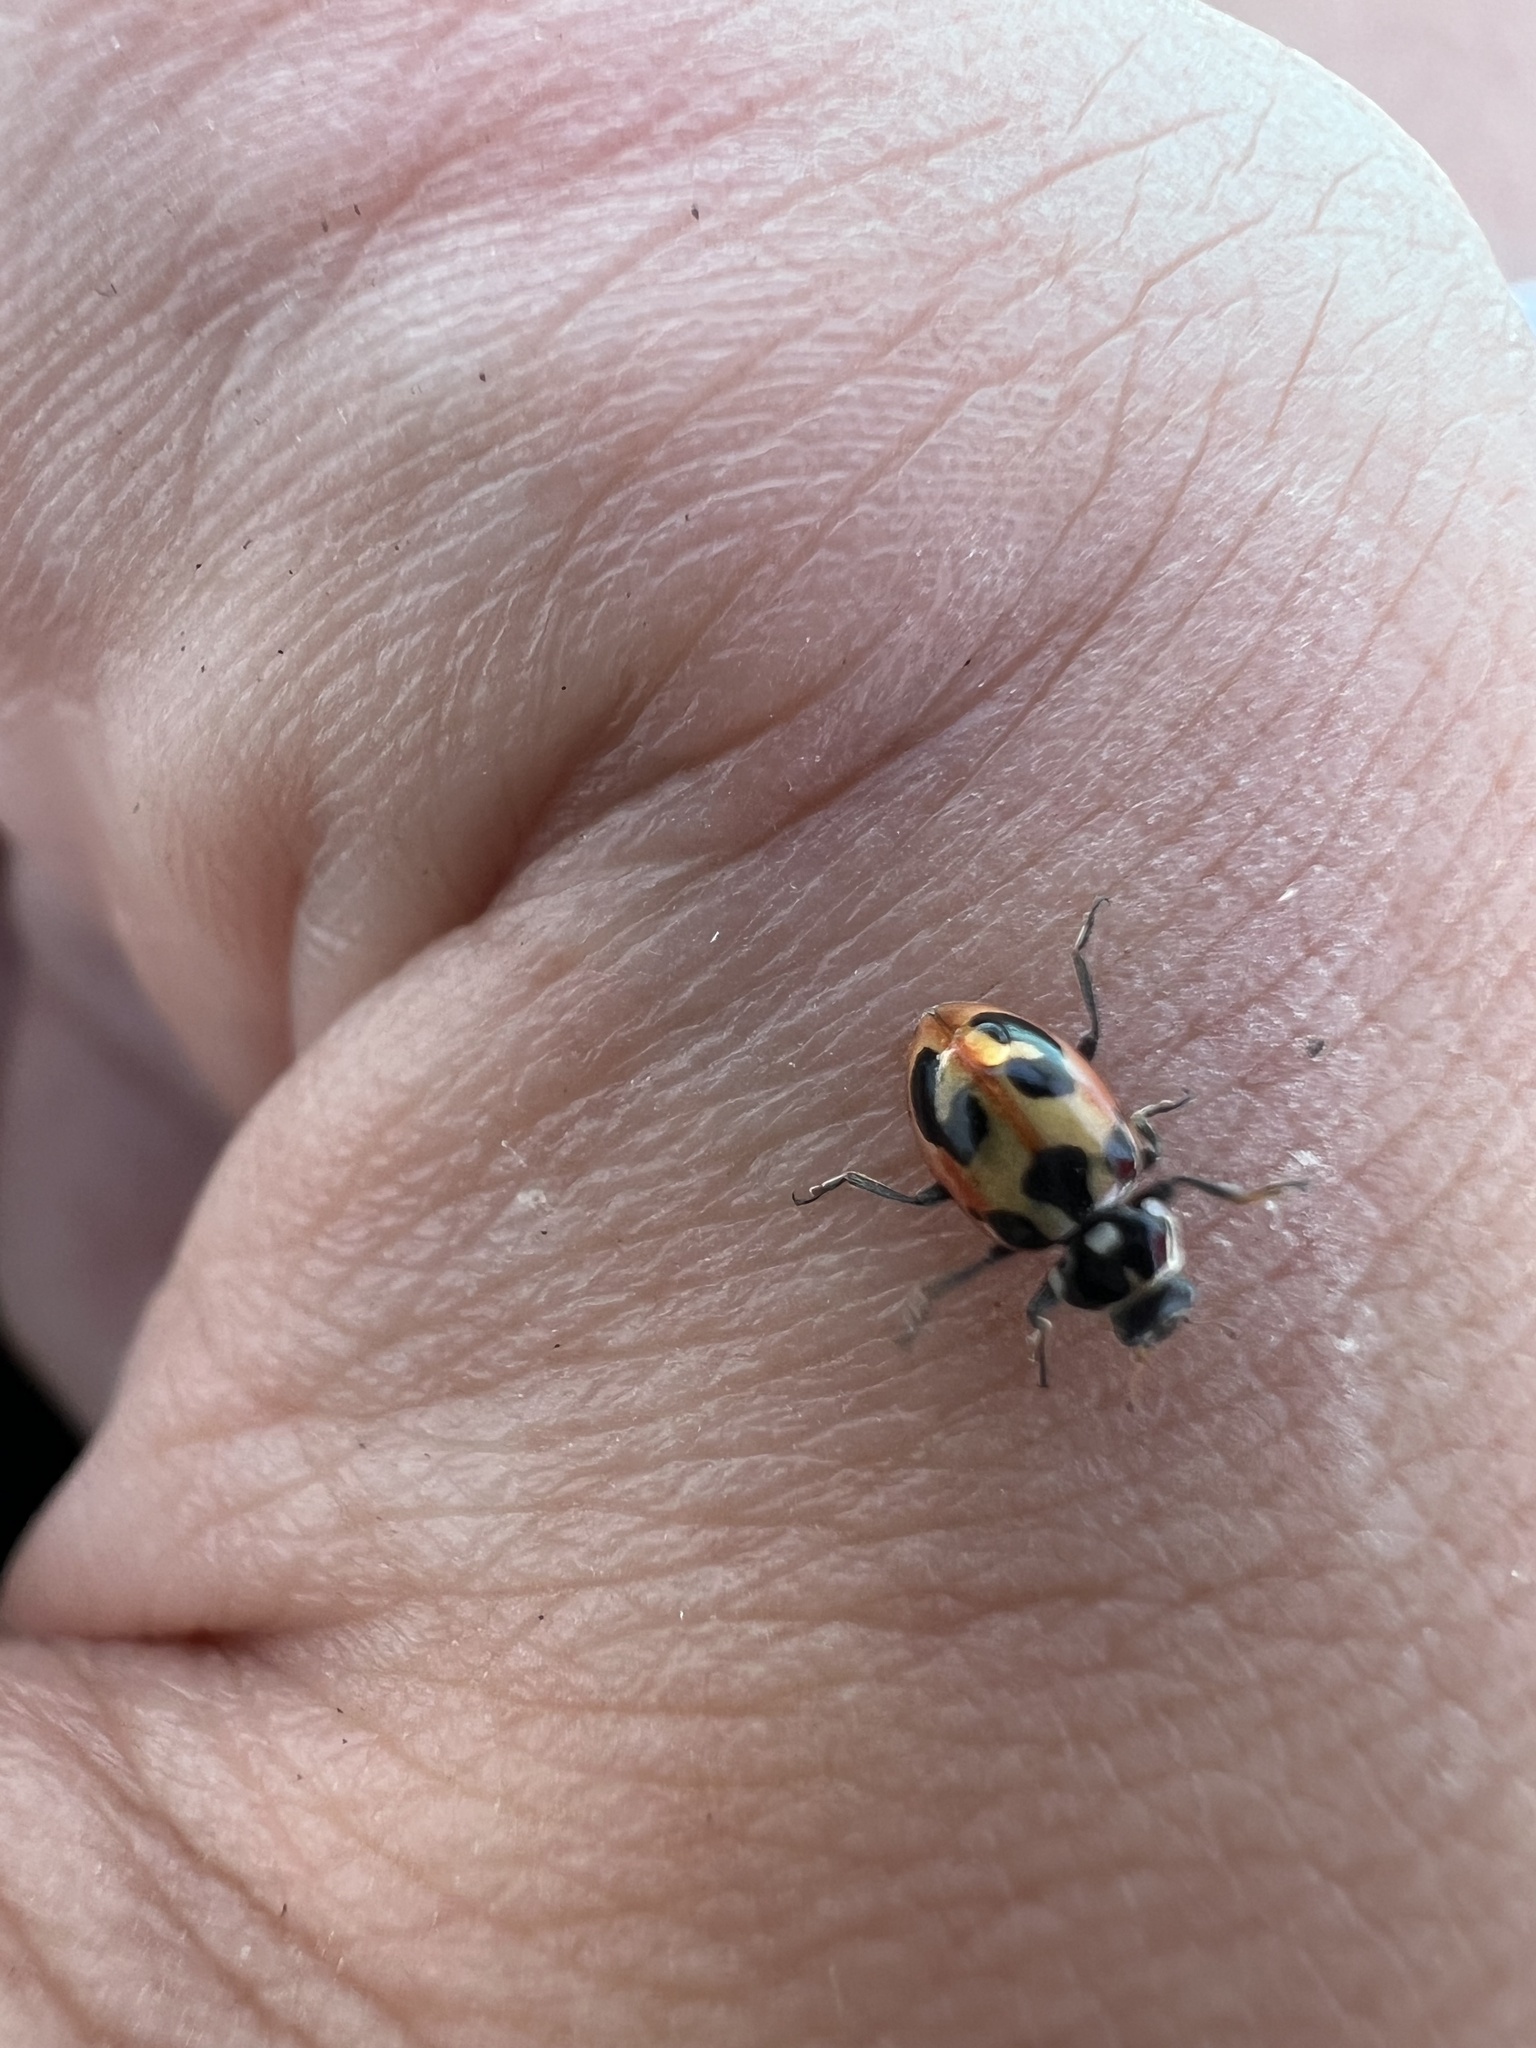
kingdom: Animalia
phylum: Arthropoda
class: Insecta
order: Coleoptera
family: Coccinellidae
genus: Hippodamia
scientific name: Hippodamia parenthesis
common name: Parenthesis lady beetle
